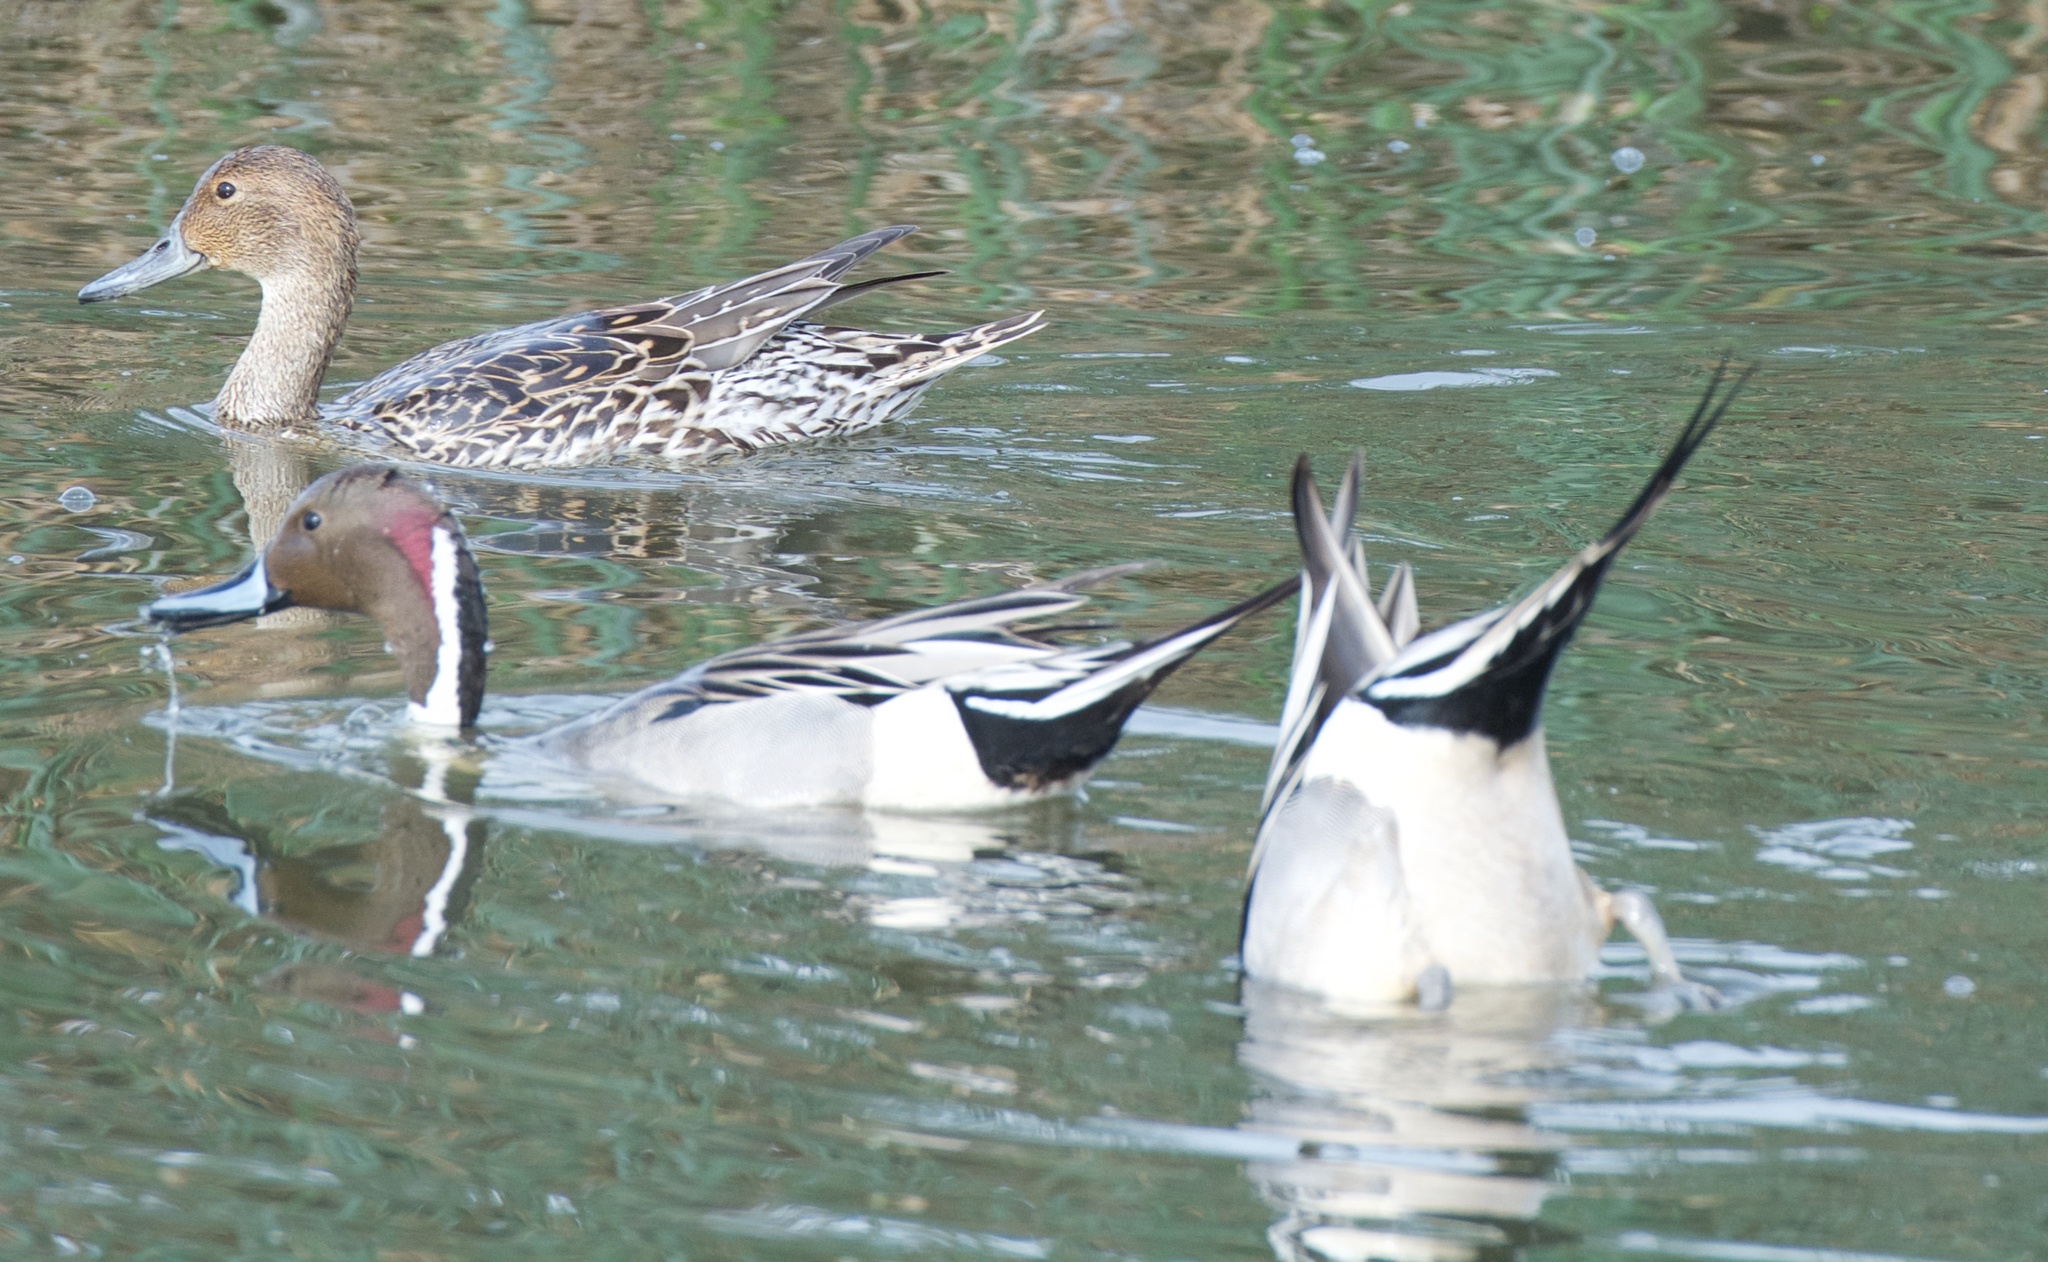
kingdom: Animalia
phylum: Chordata
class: Aves
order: Anseriformes
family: Anatidae
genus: Anas
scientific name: Anas acuta
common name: Northern pintail
